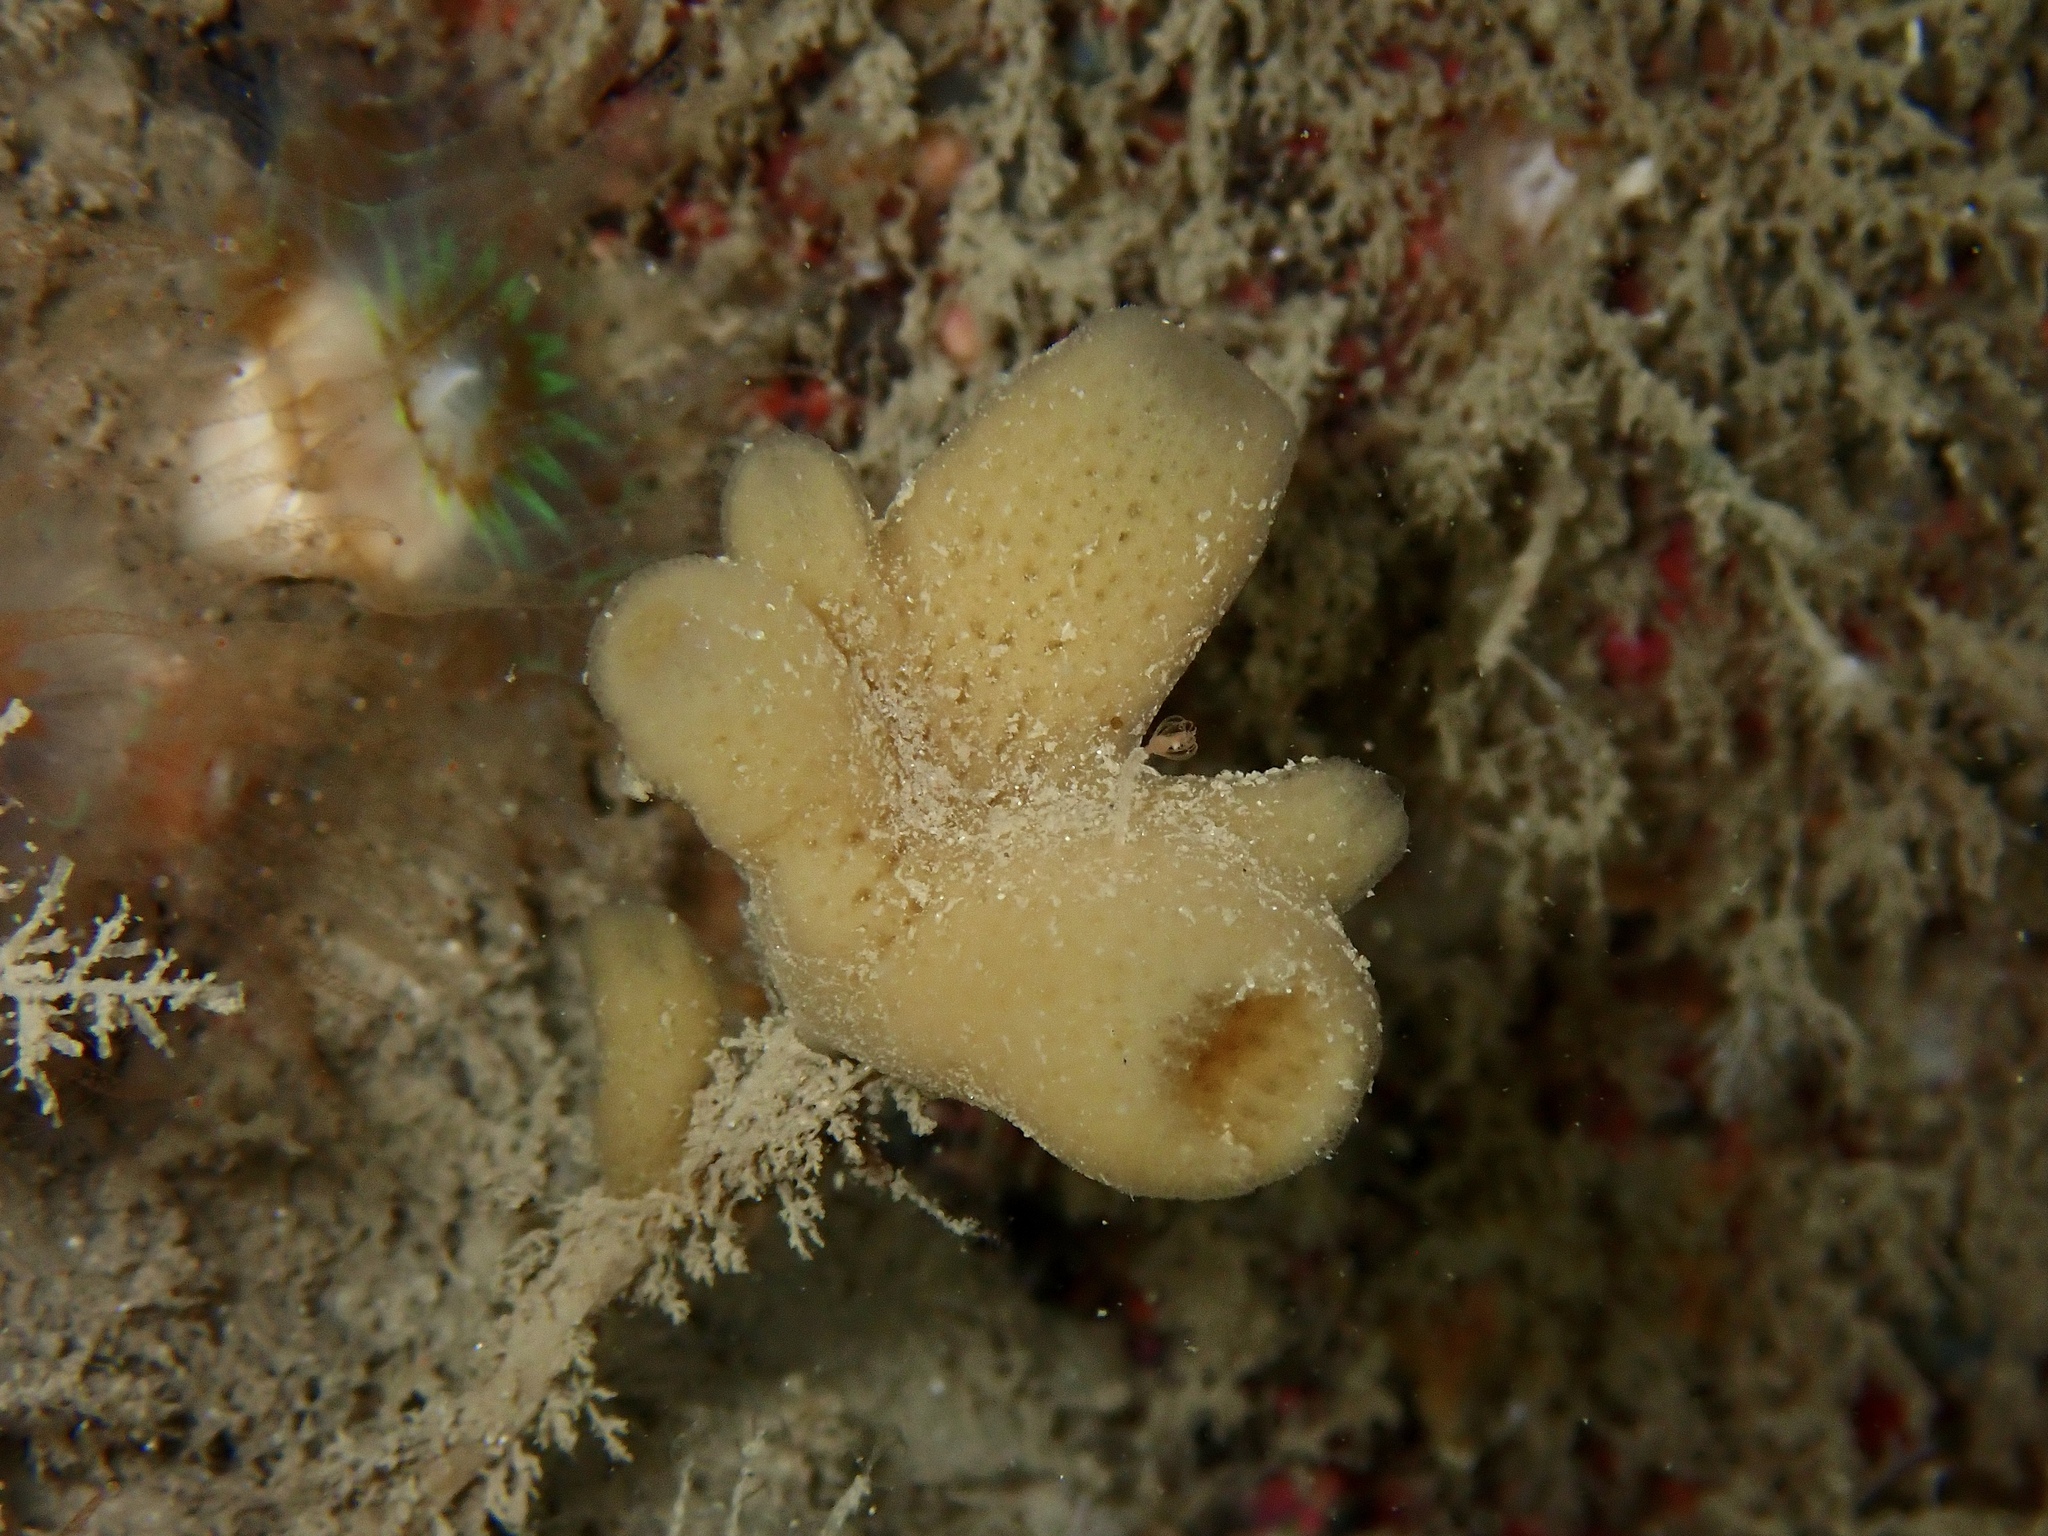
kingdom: Animalia
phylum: Porifera
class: Demospongiae
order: Haplosclerida
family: Chalinidae
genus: Haliclona
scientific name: Haliclona urceolus
